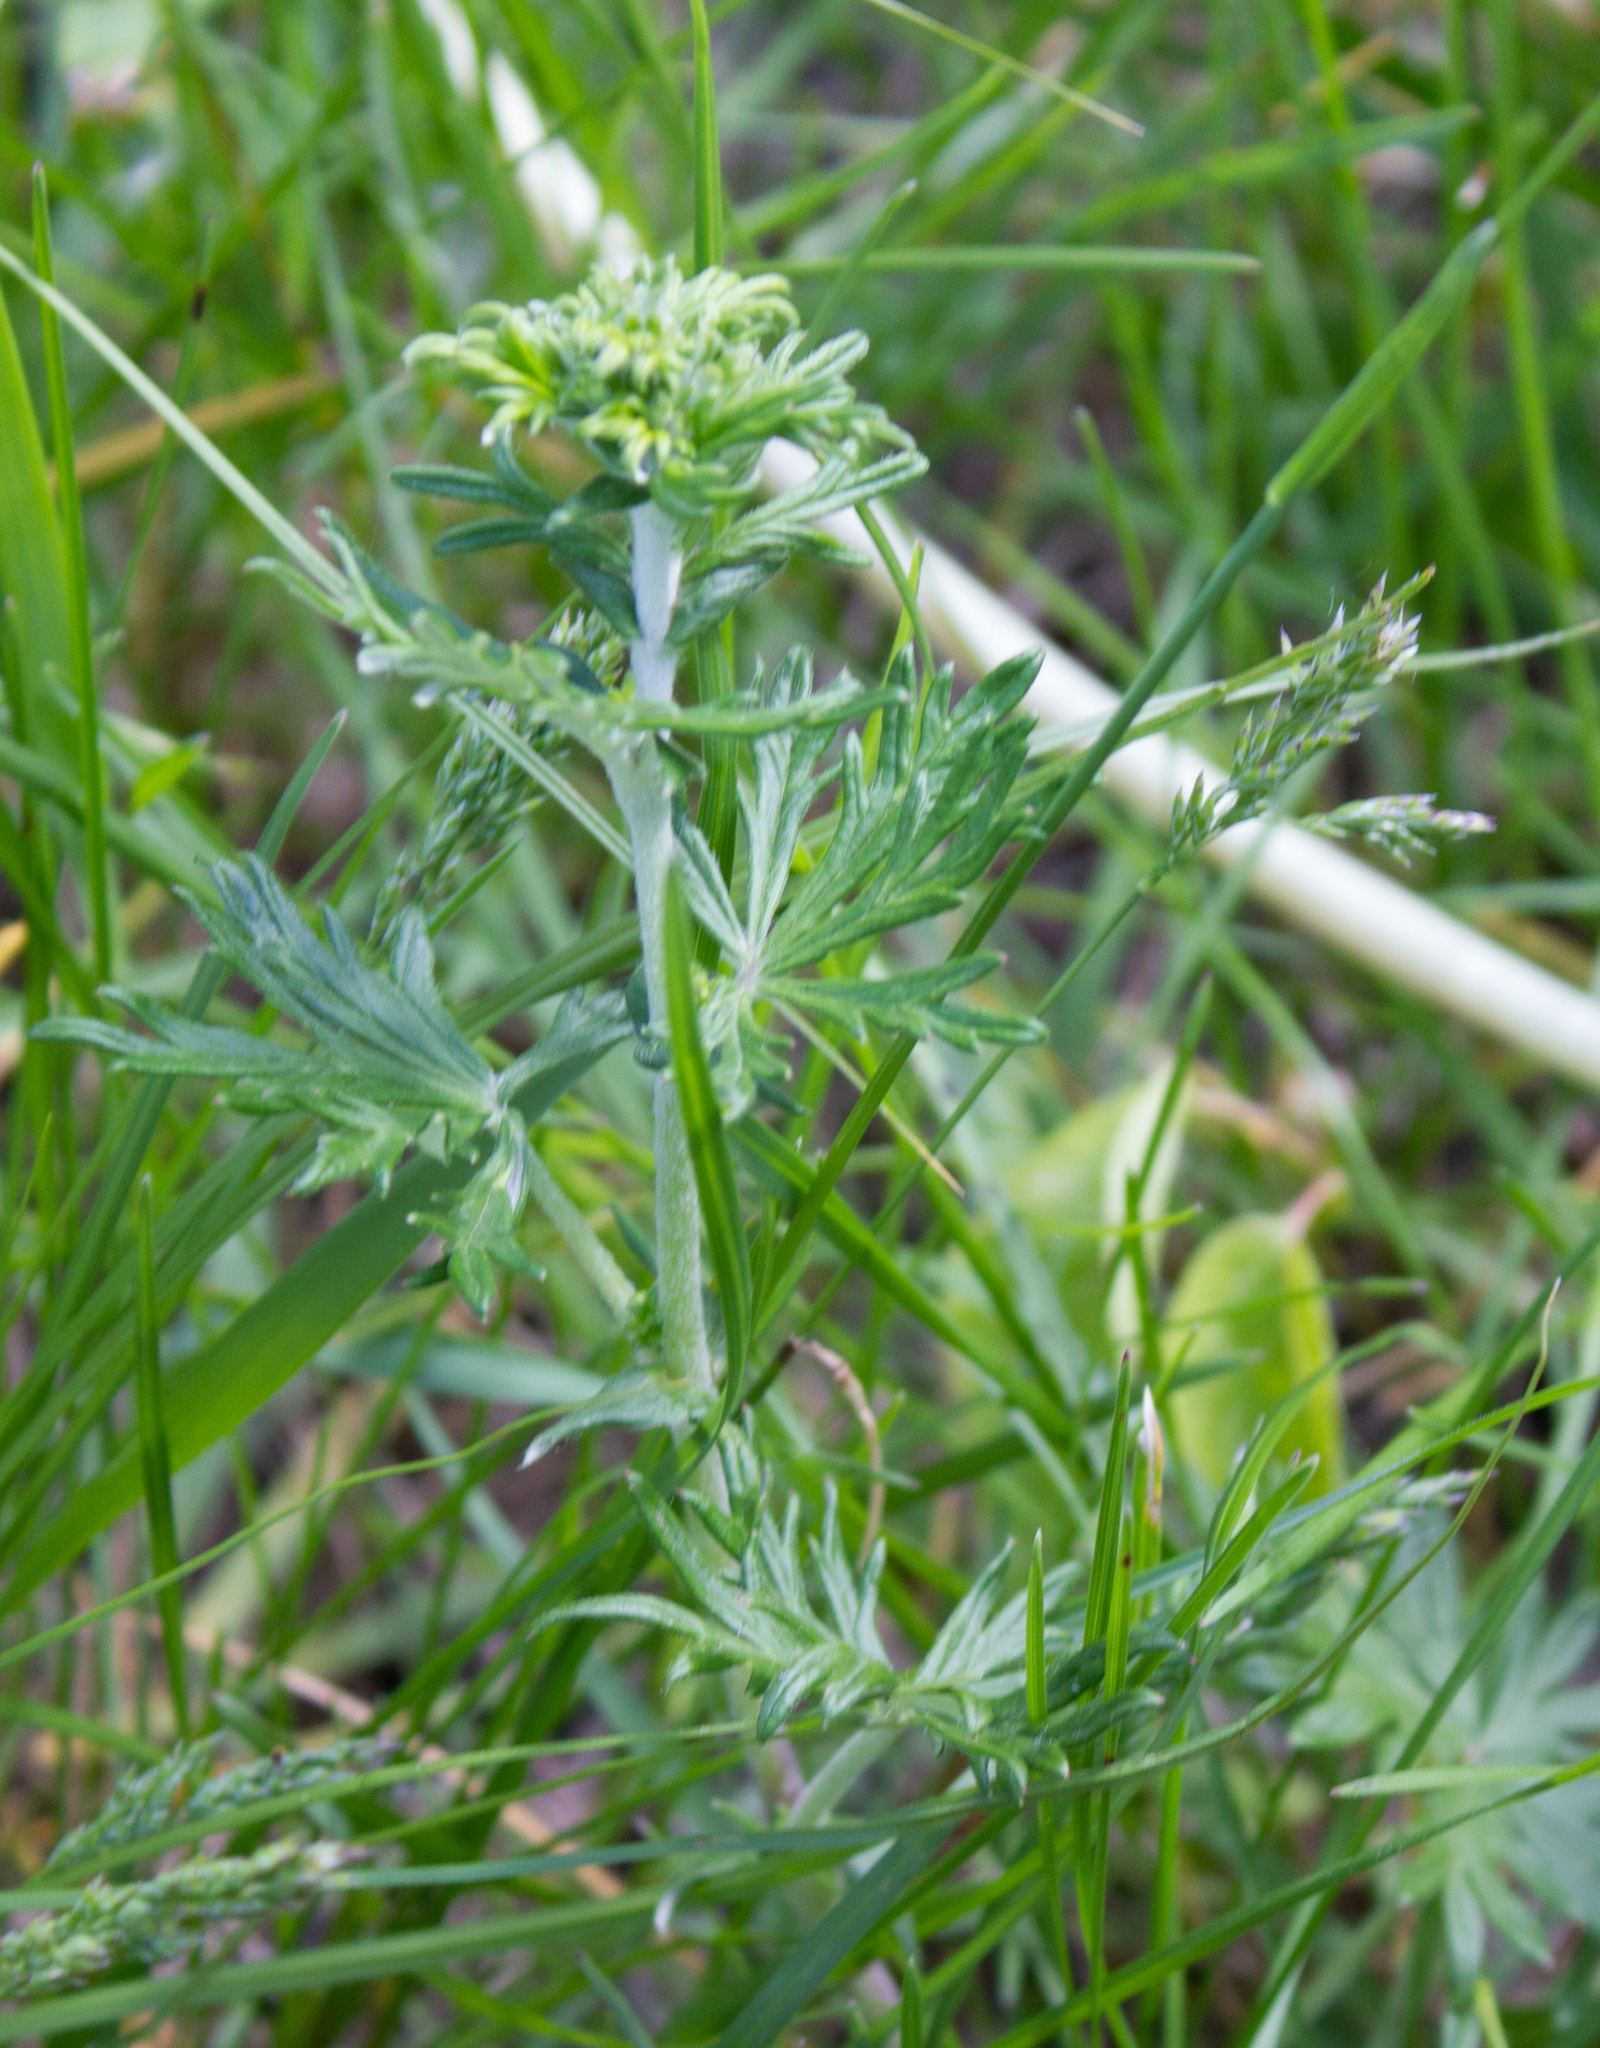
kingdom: Plantae
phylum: Tracheophyta
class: Magnoliopsida
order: Rosales
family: Rosaceae
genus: Potentilla
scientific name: Potentilla argentea
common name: Hoary cinquefoil
